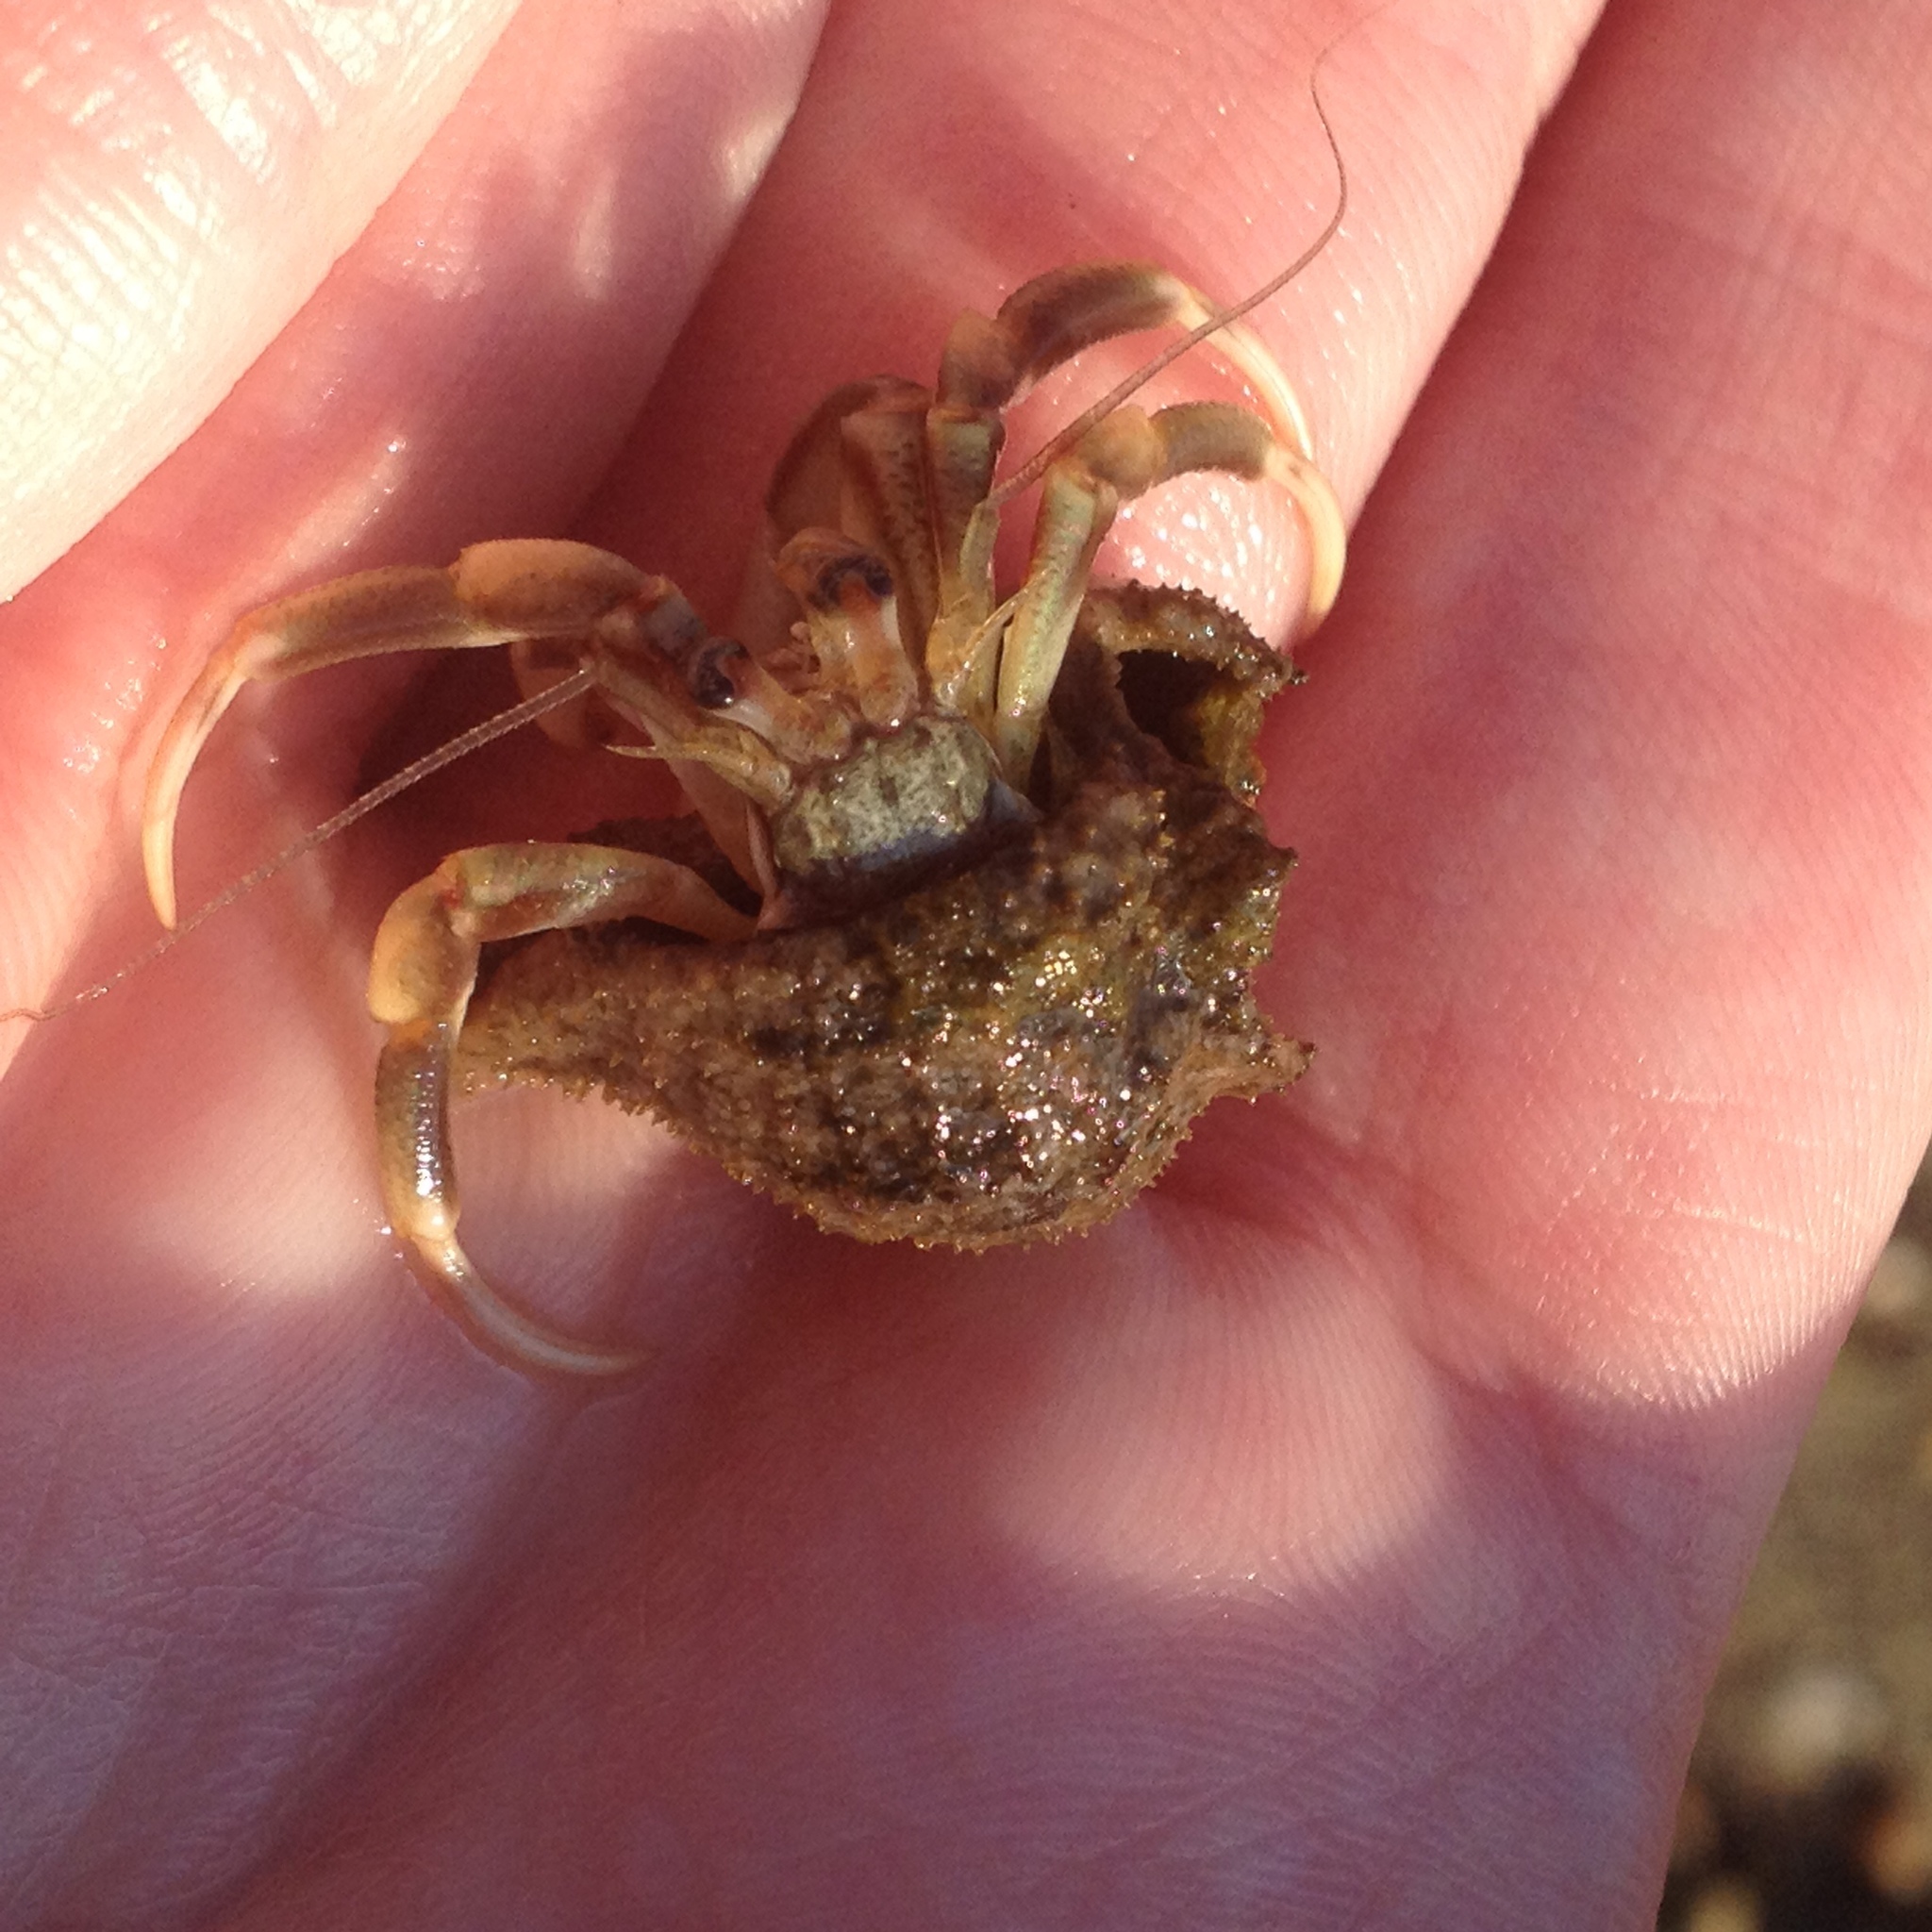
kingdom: Animalia
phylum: Arthropoda
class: Malacostraca
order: Decapoda
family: Paguridae
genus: Pagurus
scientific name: Pagurus longicarpus
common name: Long-armed hermit crab
